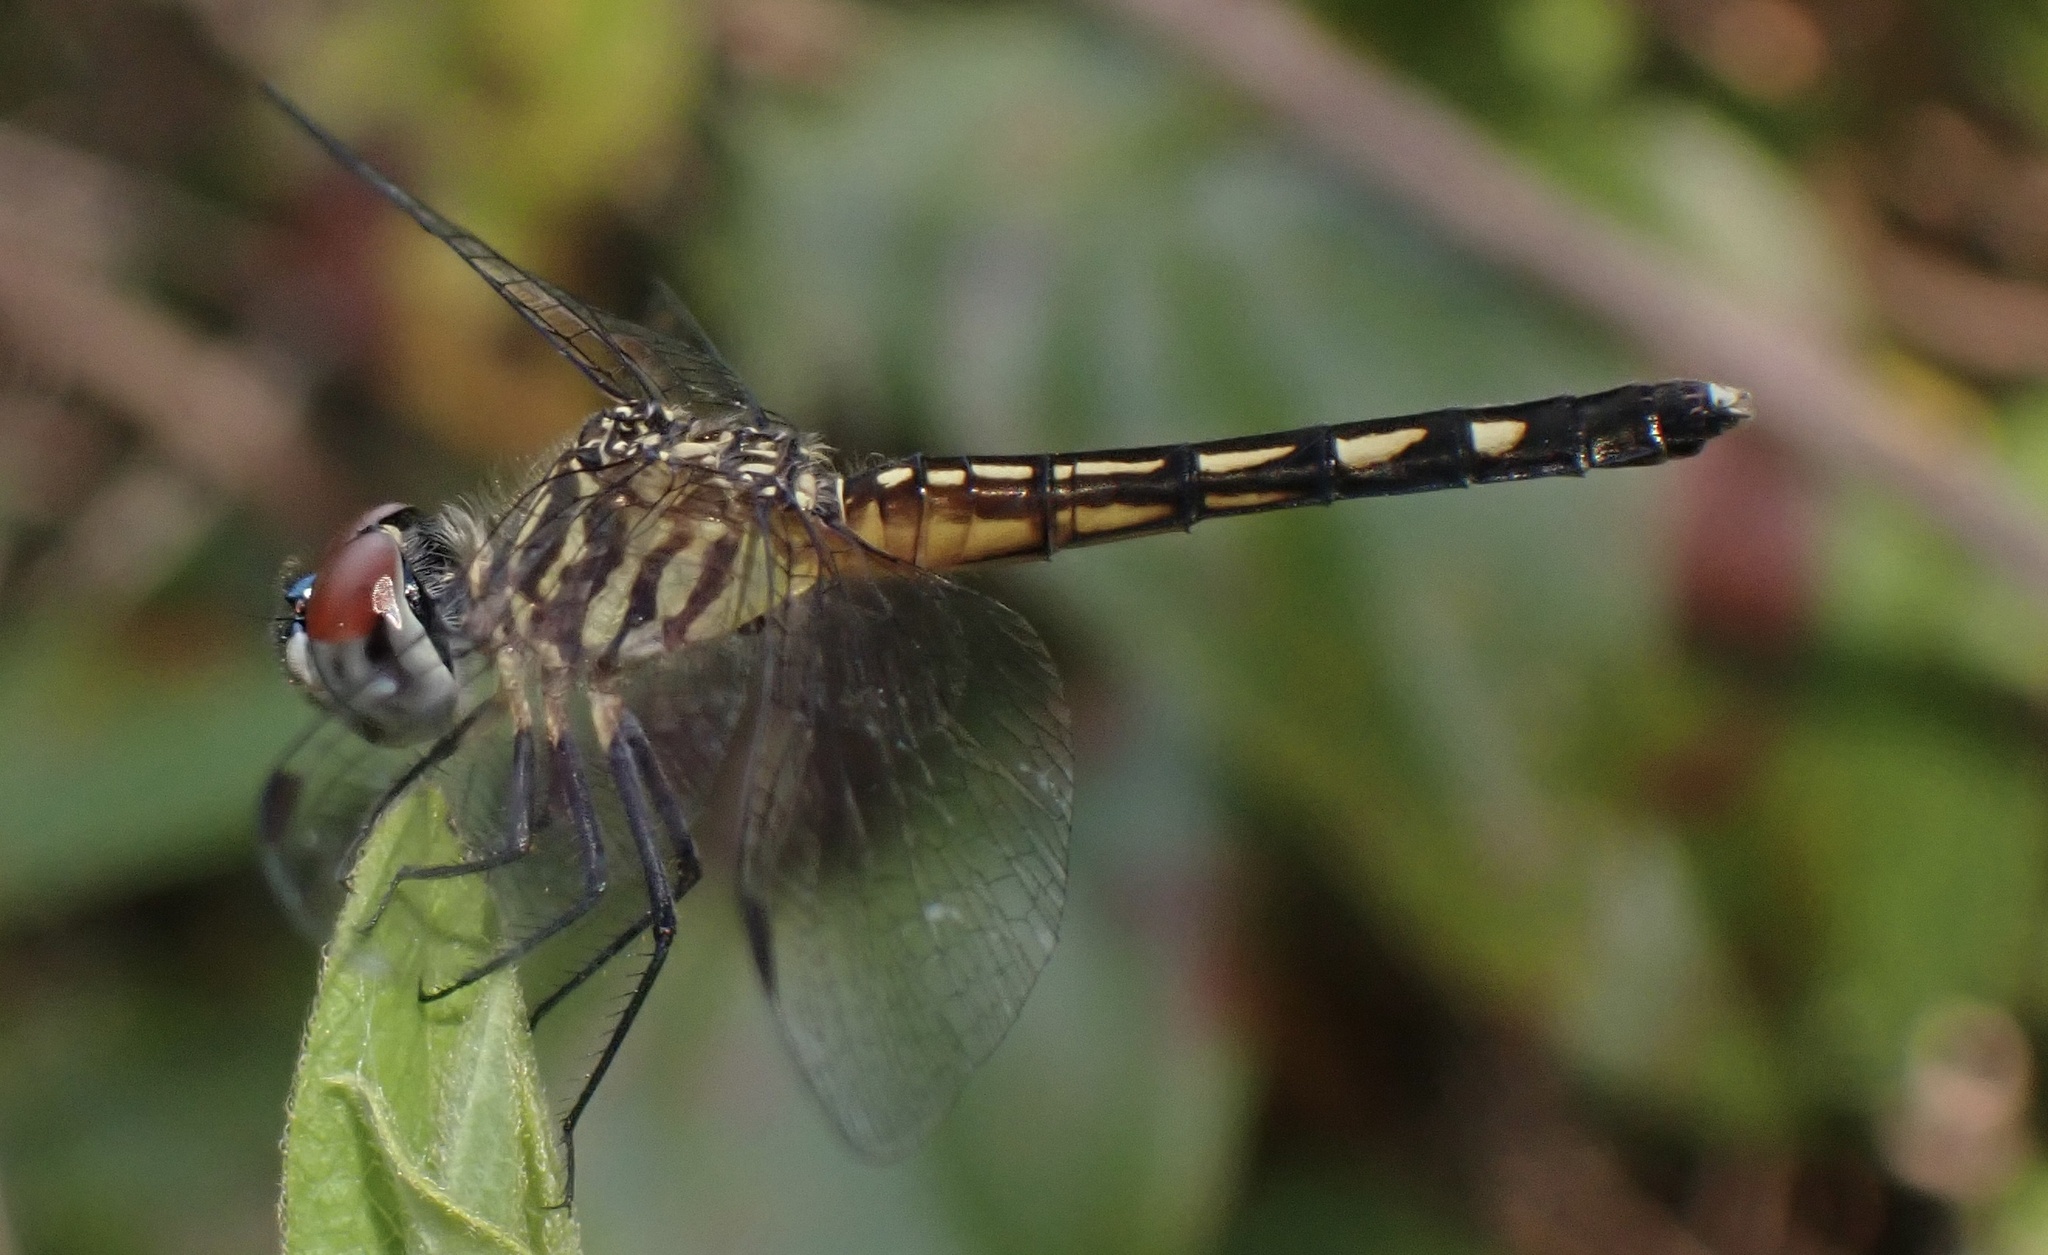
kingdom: Animalia
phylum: Arthropoda
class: Insecta
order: Odonata
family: Libellulidae
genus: Pachydiplax
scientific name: Pachydiplax longipennis
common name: Blue dasher
